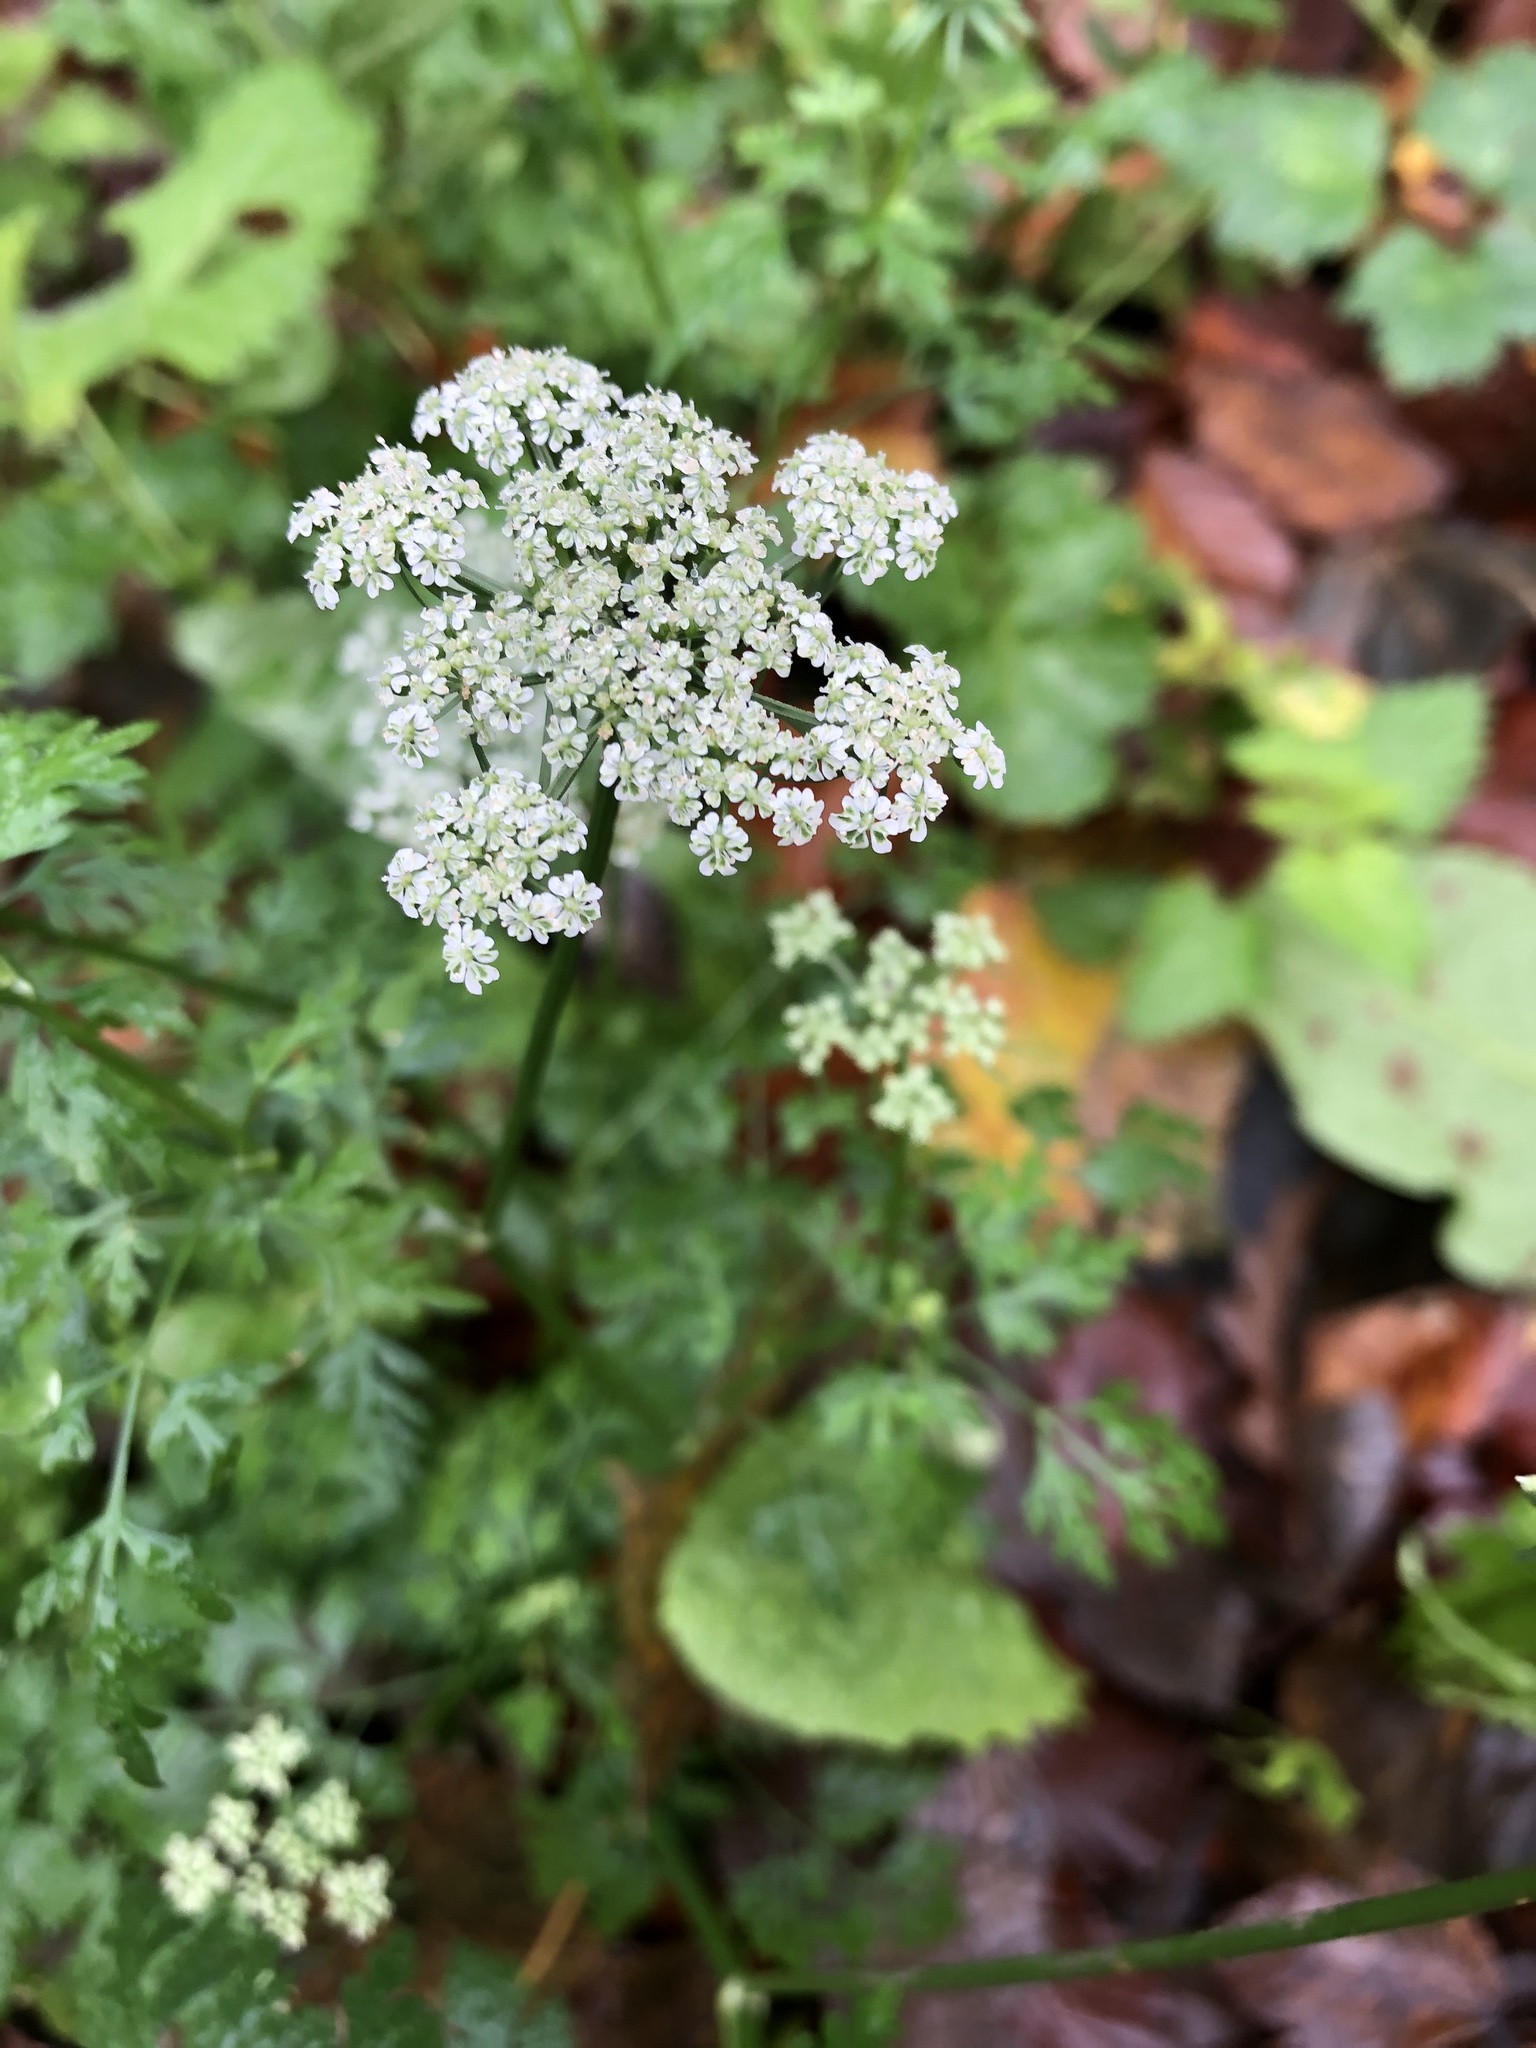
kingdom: Plantae
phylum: Tracheophyta
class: Magnoliopsida
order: Apiales
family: Apiaceae
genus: Aethusa
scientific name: Aethusa cynapium
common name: Fool's parsley
